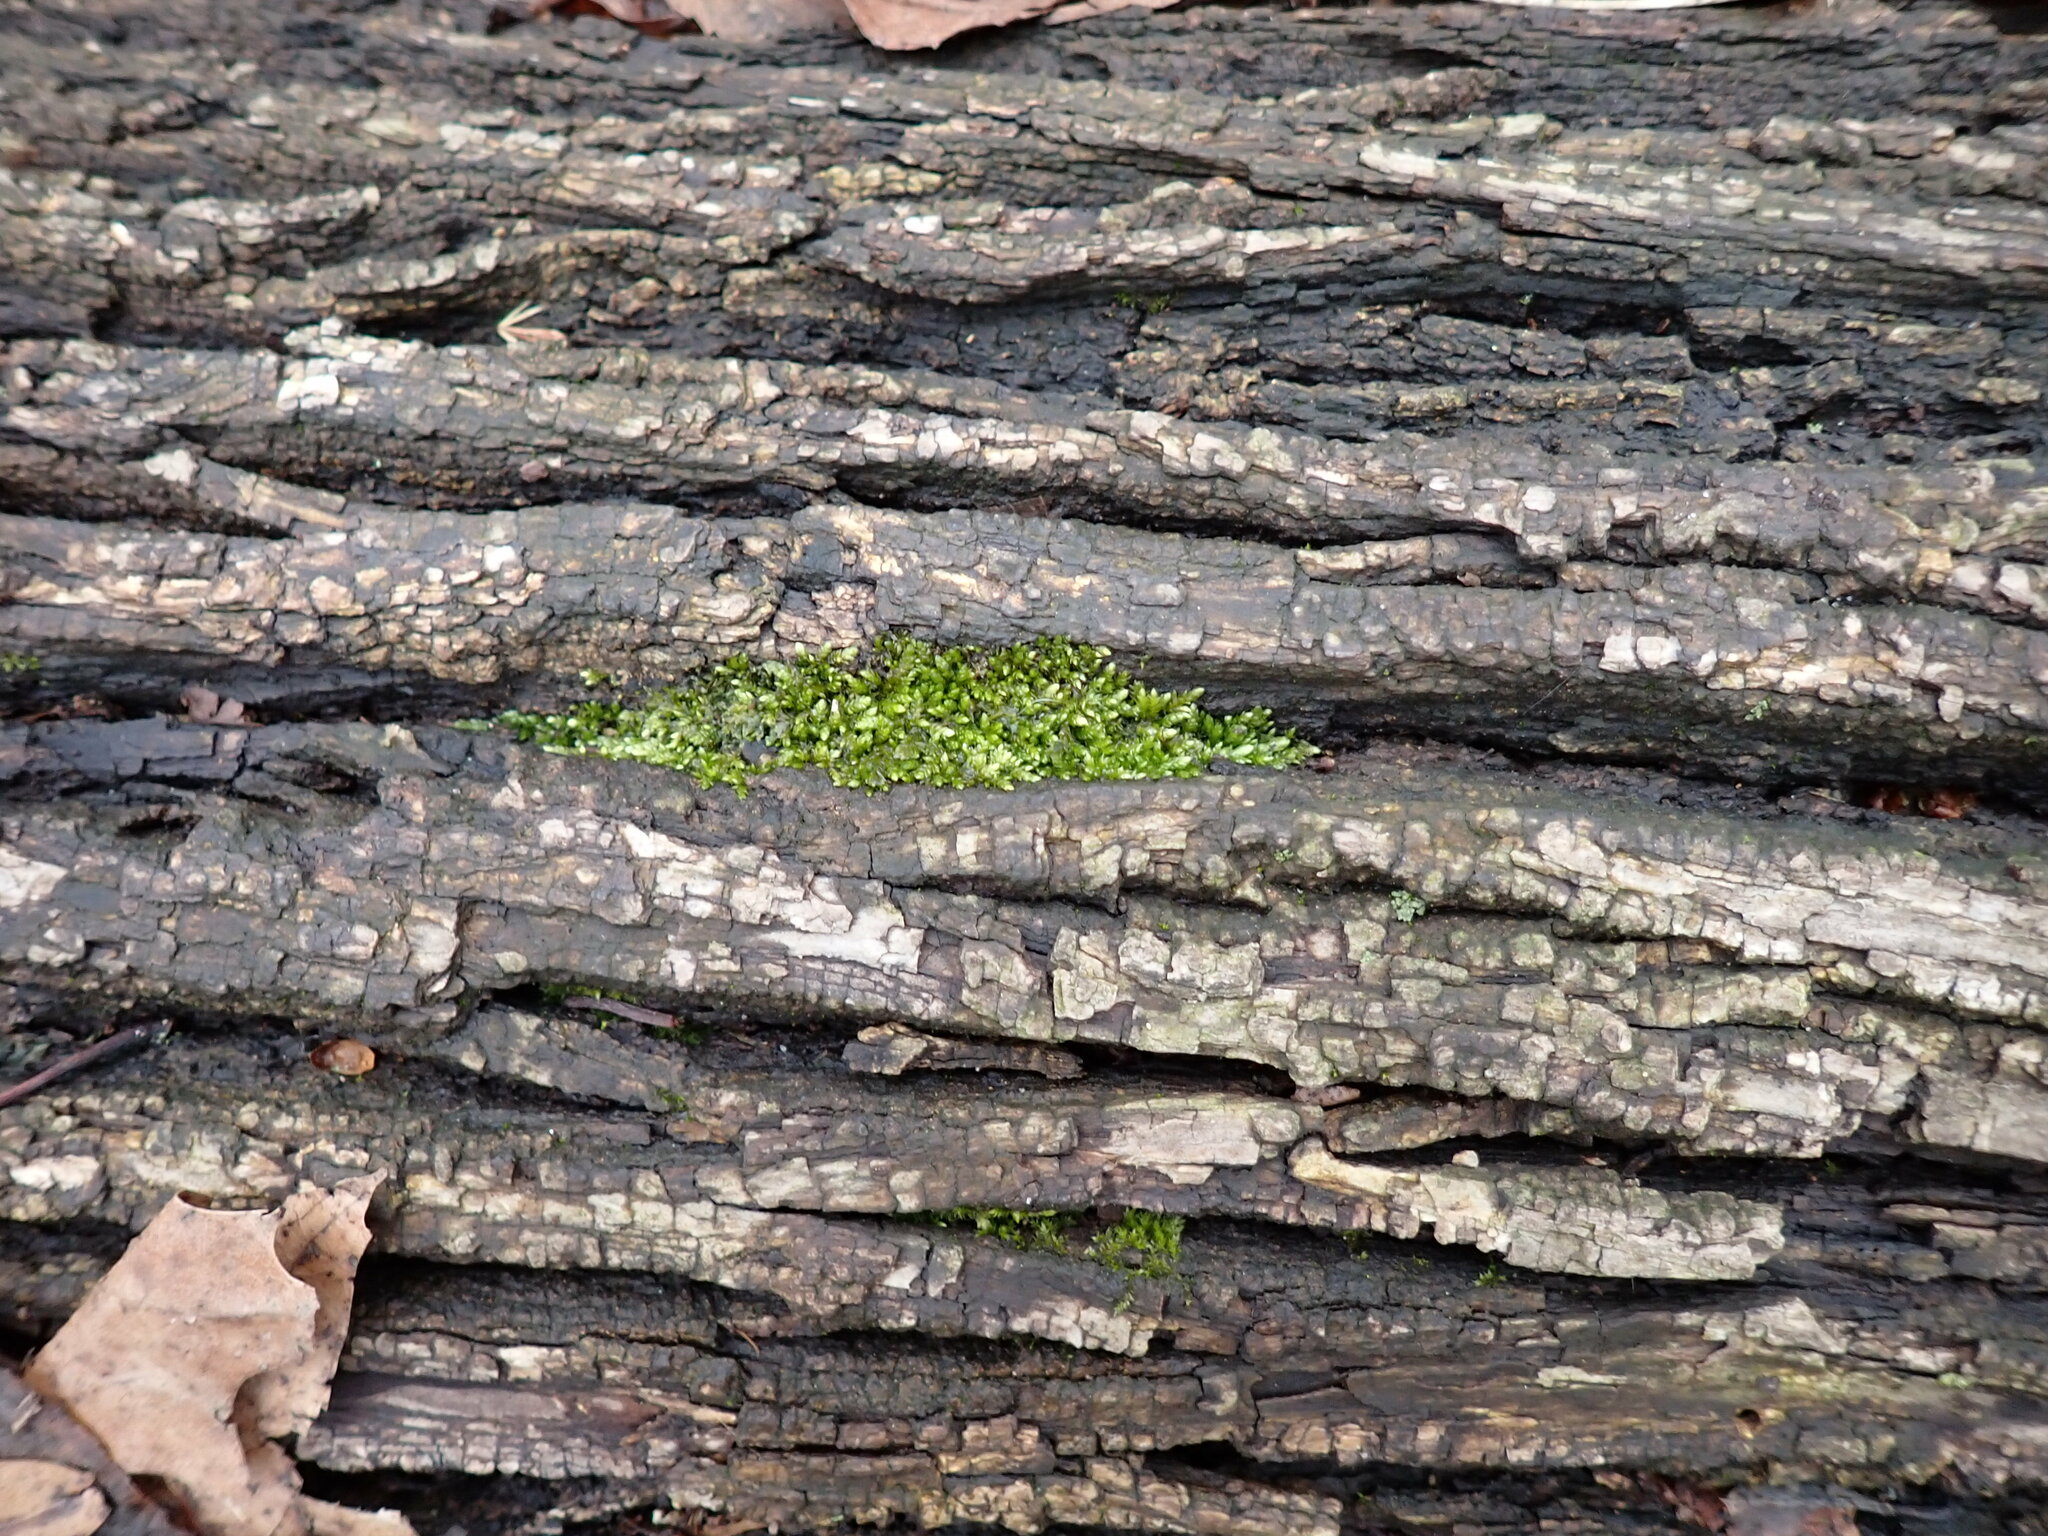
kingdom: Plantae
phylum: Bryophyta
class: Bryopsida
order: Hypnales
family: Entodontaceae
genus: Entodon
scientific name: Entodon seductrix
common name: Round-stemmed entodon moss
